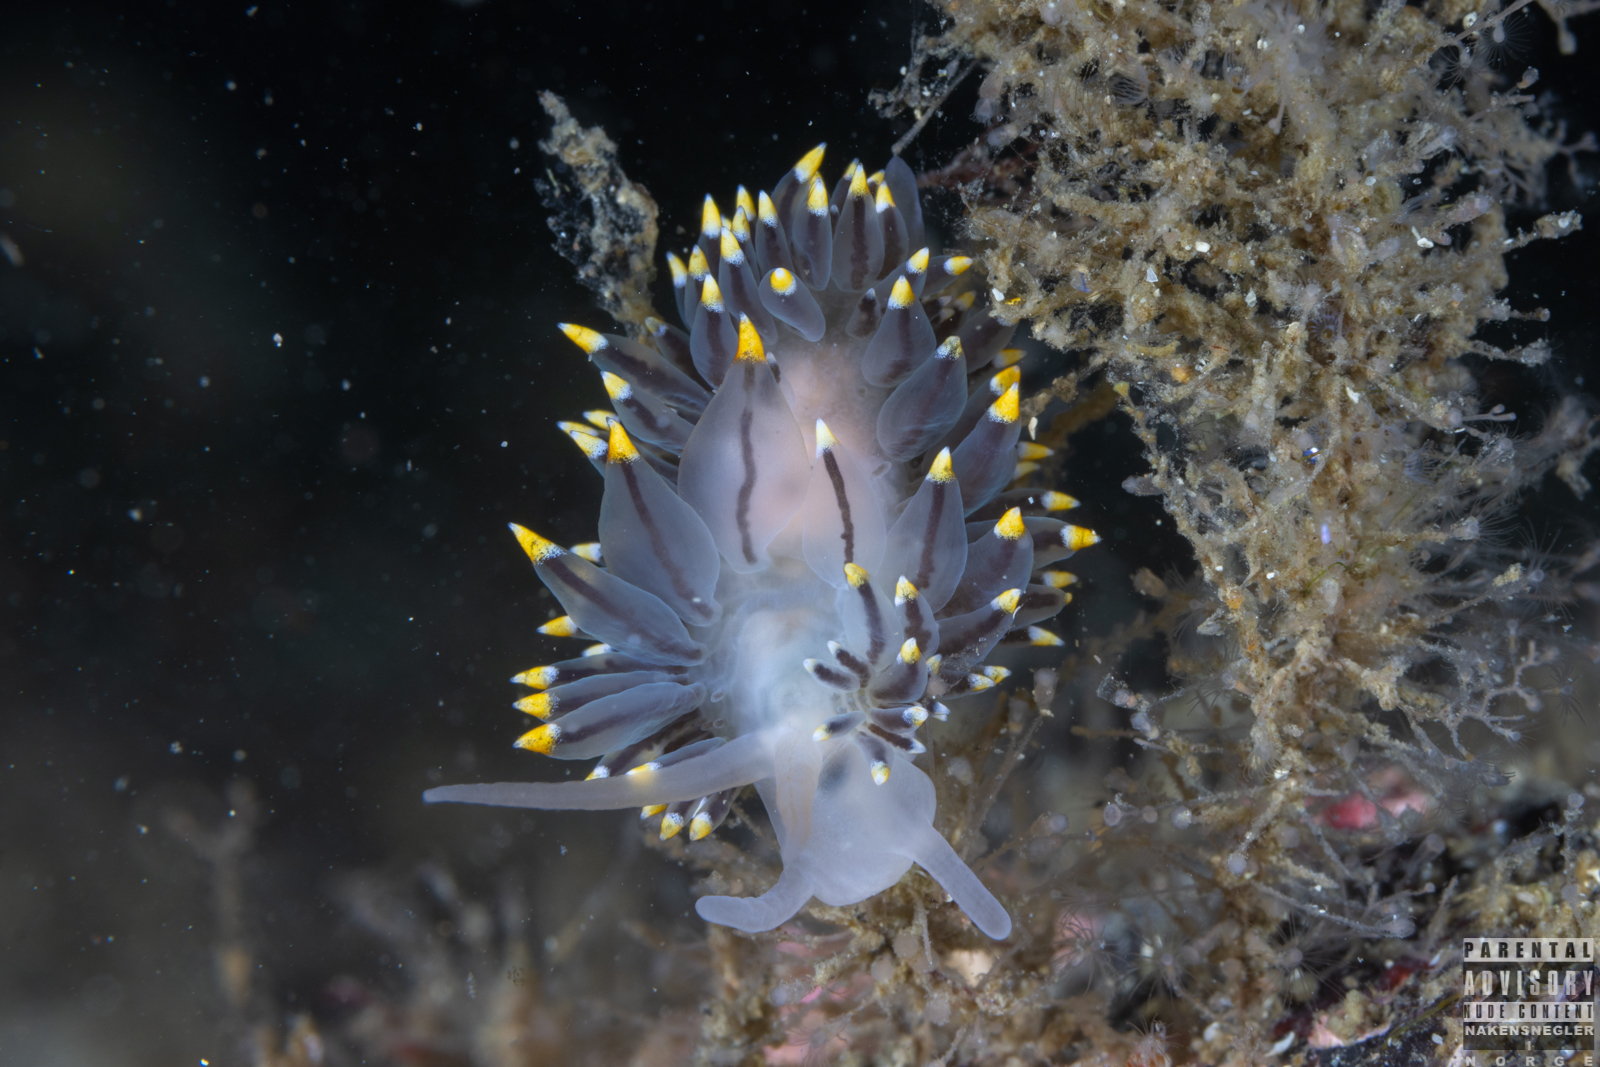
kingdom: Animalia
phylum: Mollusca
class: Gastropoda
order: Nudibranchia
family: Eubranchidae
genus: Eubranchus
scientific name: Eubranchus tricolor
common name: Painted balloon aeolis
